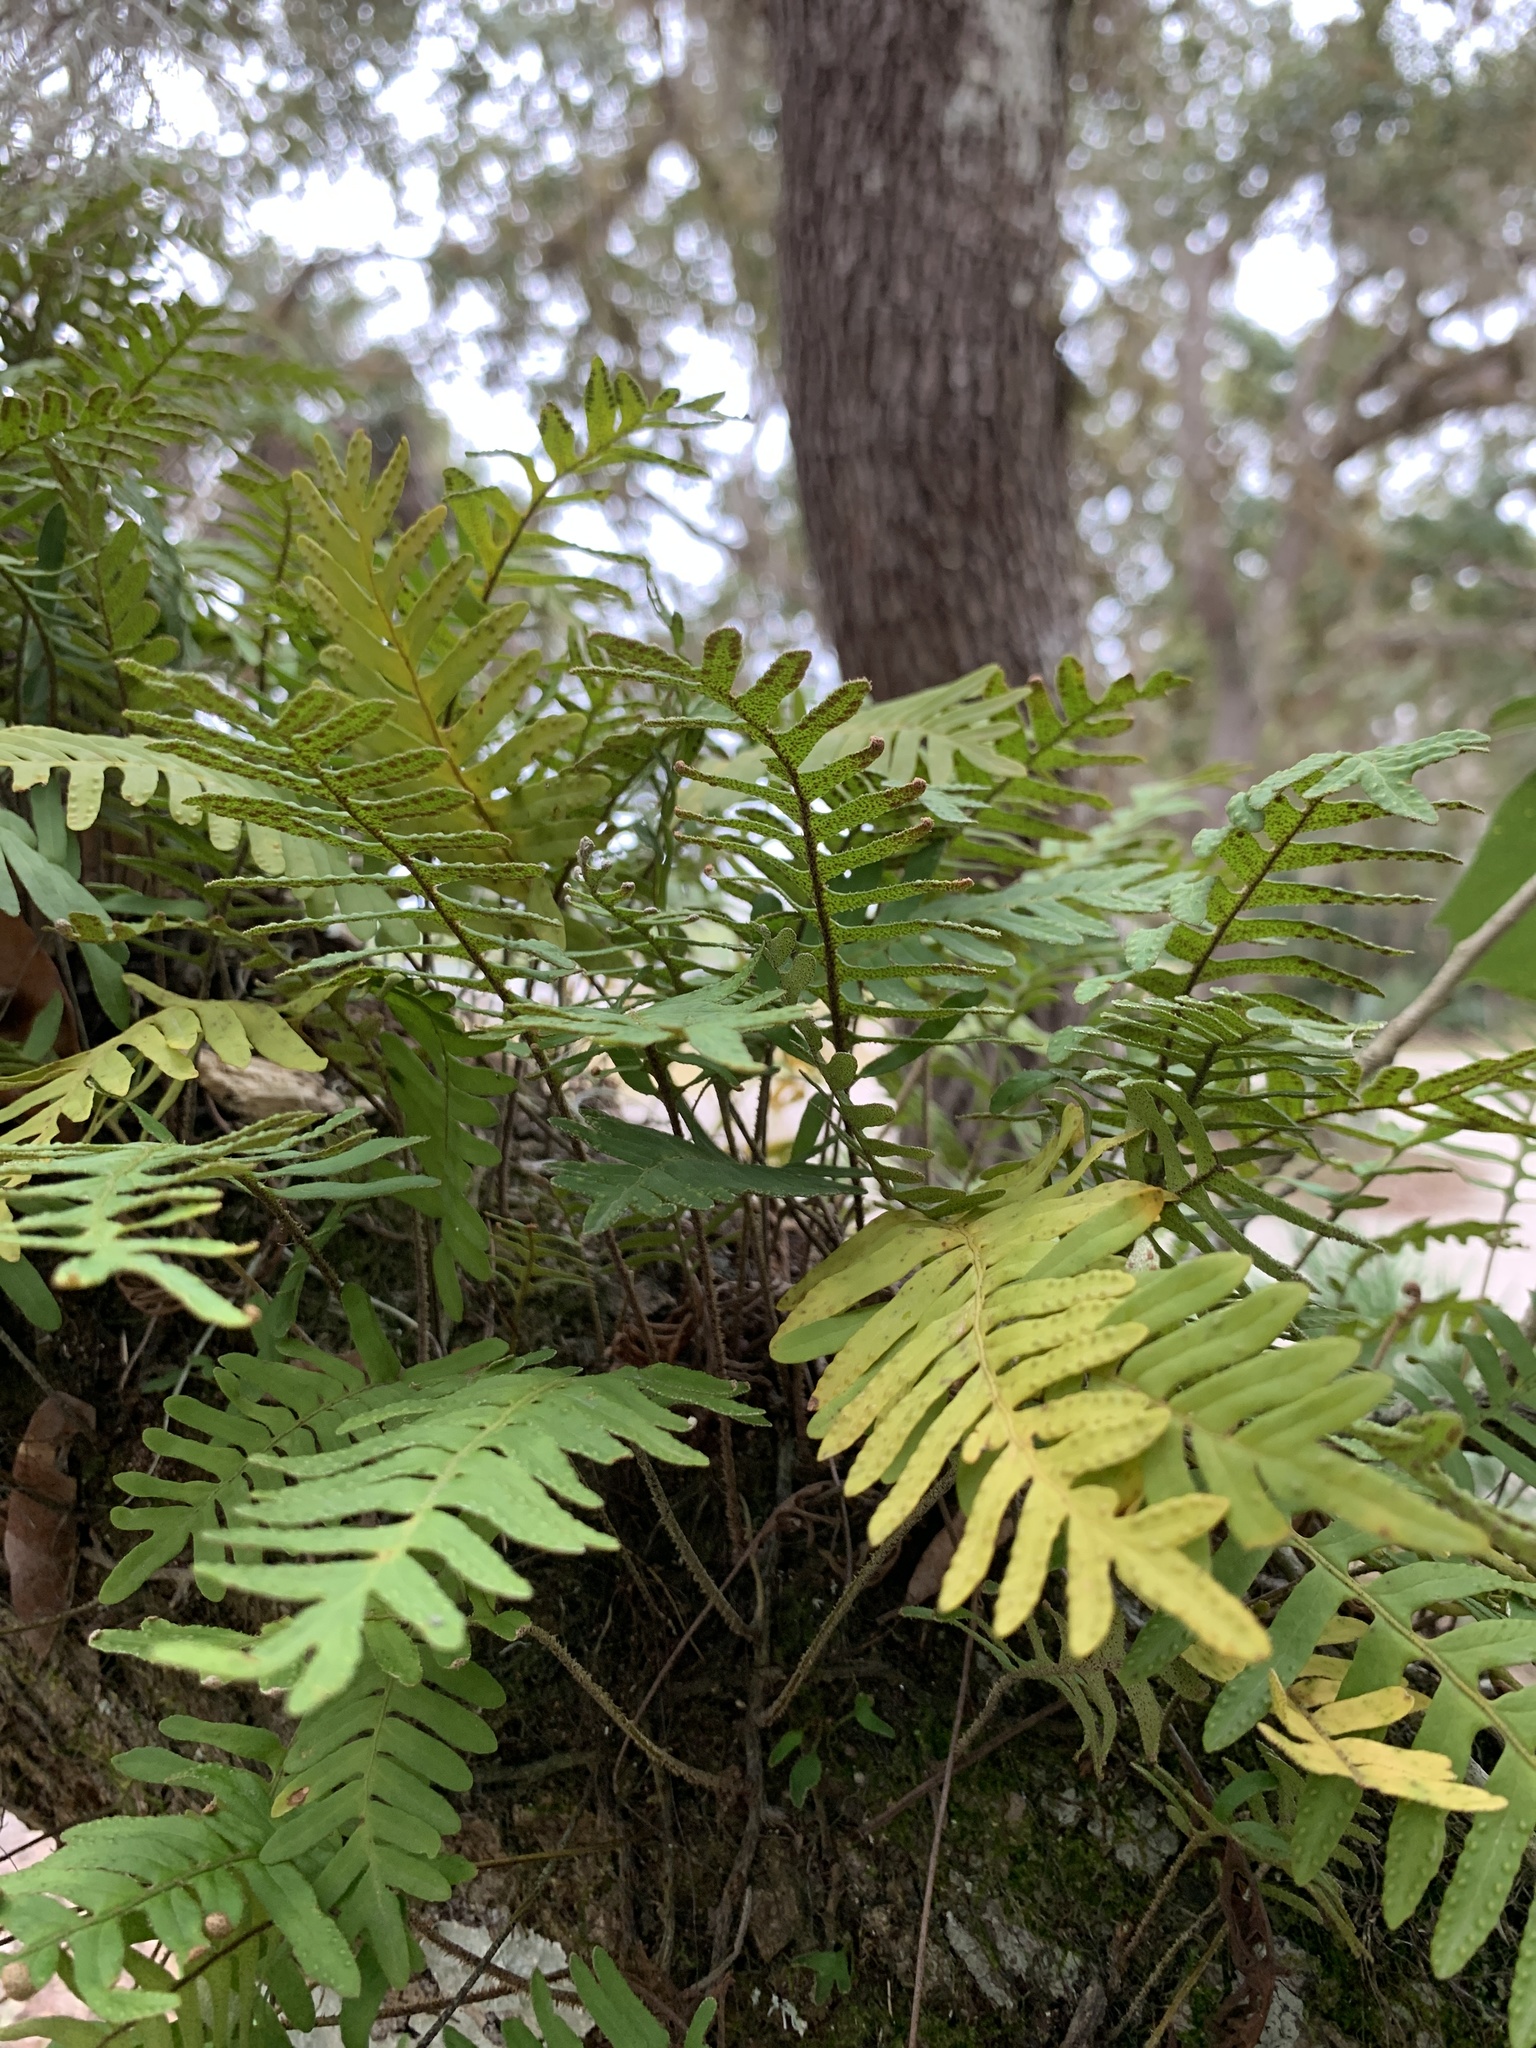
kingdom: Plantae
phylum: Tracheophyta
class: Polypodiopsida
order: Polypodiales
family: Polypodiaceae
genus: Pleopeltis
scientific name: Pleopeltis michauxiana
